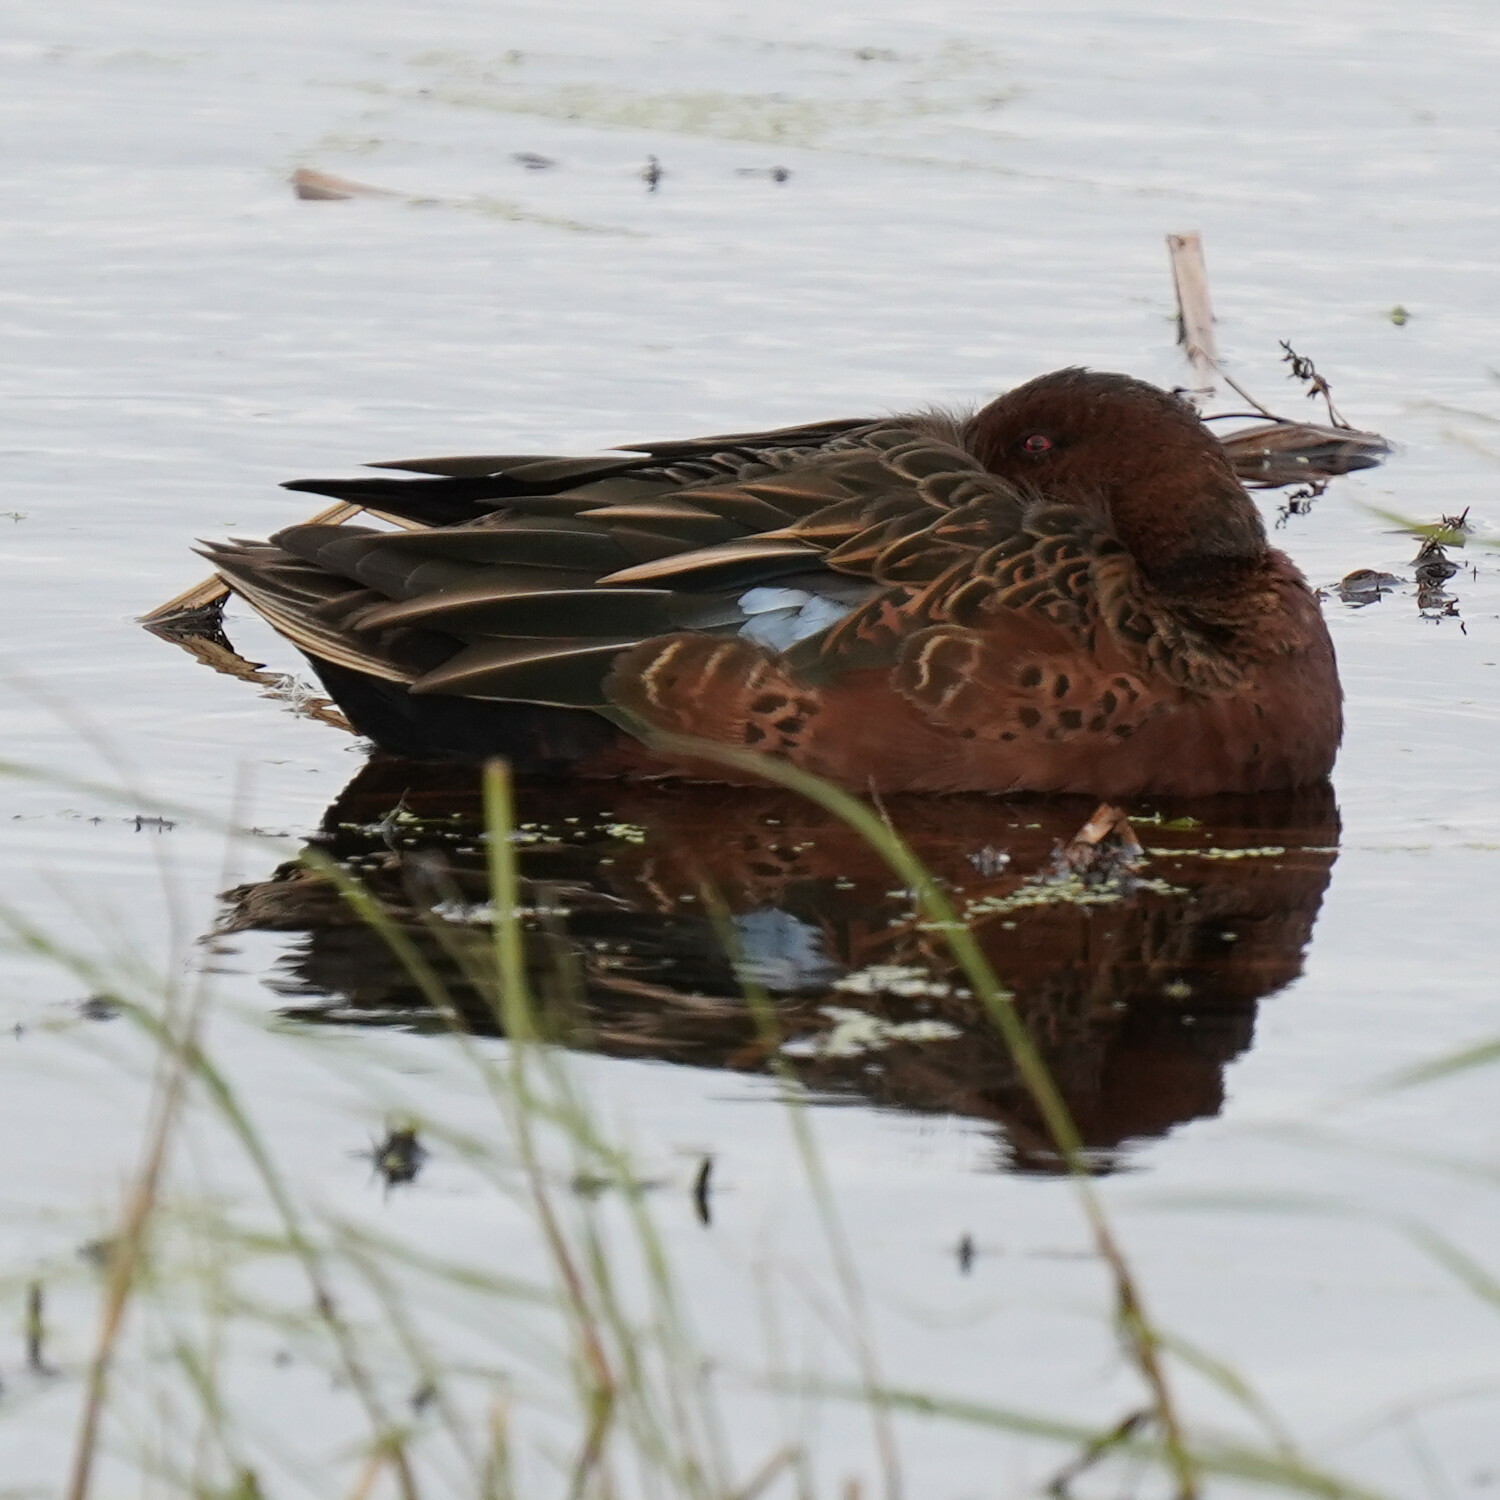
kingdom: Animalia
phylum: Chordata
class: Aves
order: Anseriformes
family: Anatidae
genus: Spatula
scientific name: Spatula cyanoptera
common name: Cinnamon teal
